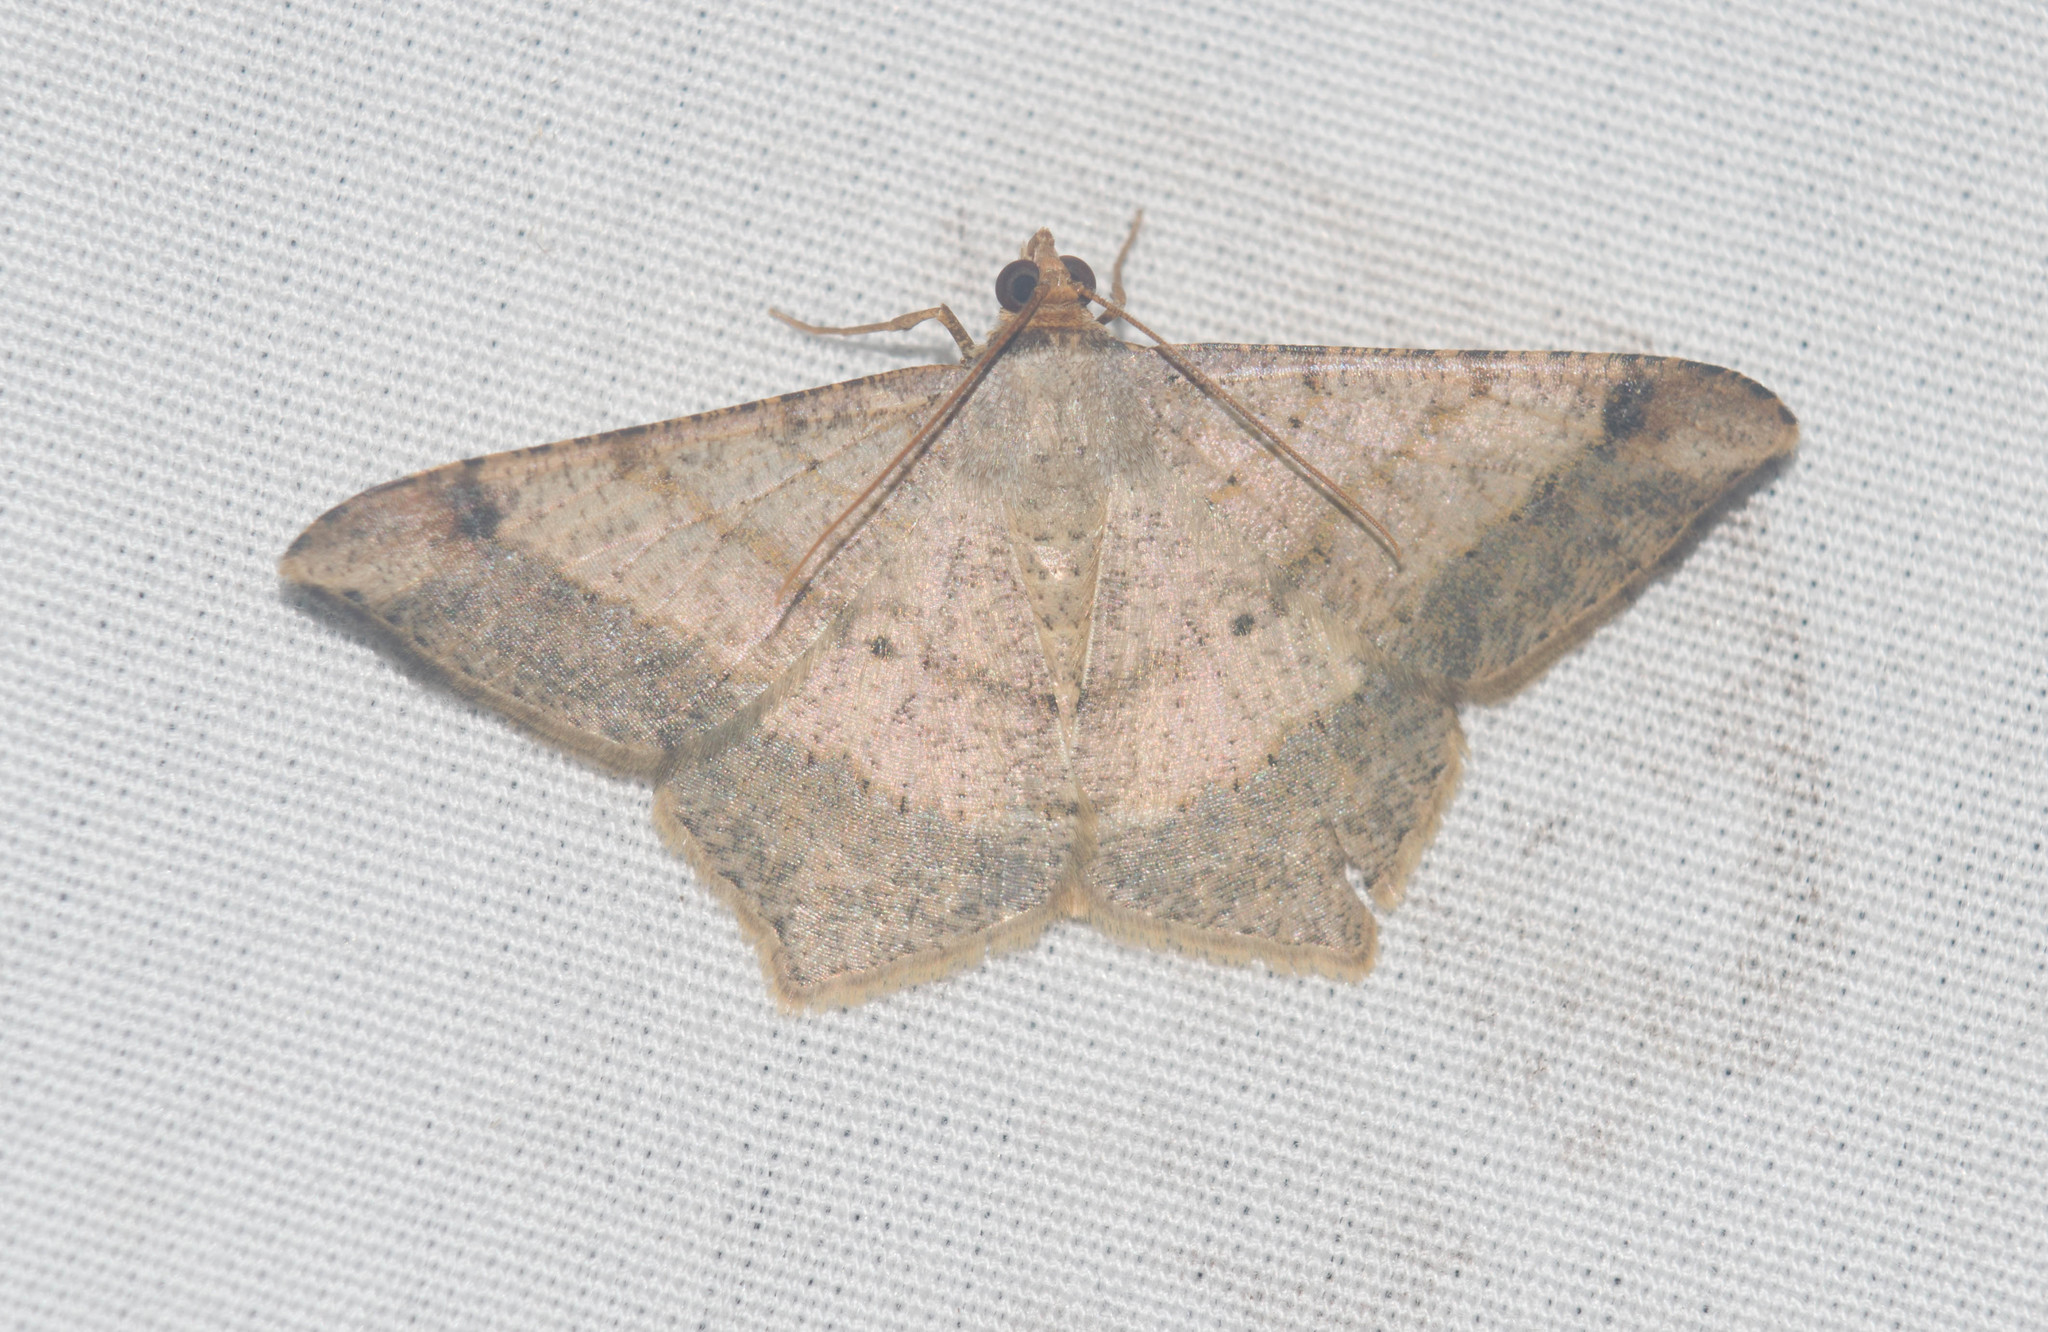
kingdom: Animalia
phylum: Arthropoda
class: Insecta
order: Lepidoptera
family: Geometridae
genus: Macaria
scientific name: Macaria abydata
